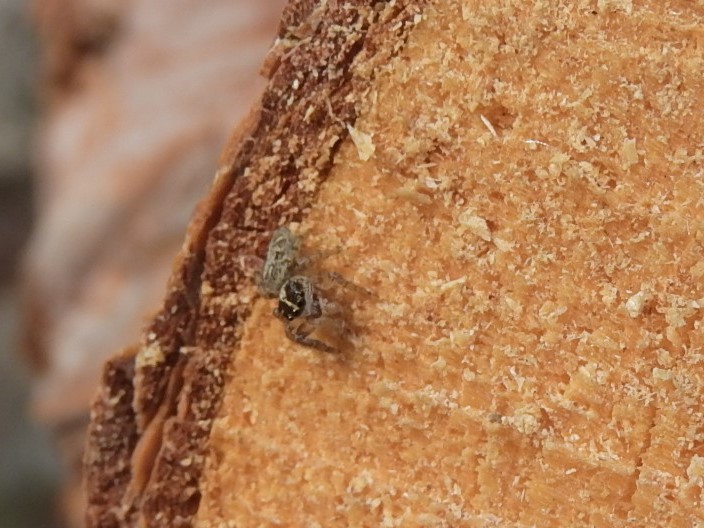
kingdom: Animalia
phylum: Arthropoda
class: Arachnida
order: Araneae
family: Salticidae
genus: Macaroeris
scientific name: Macaroeris nidicolens
